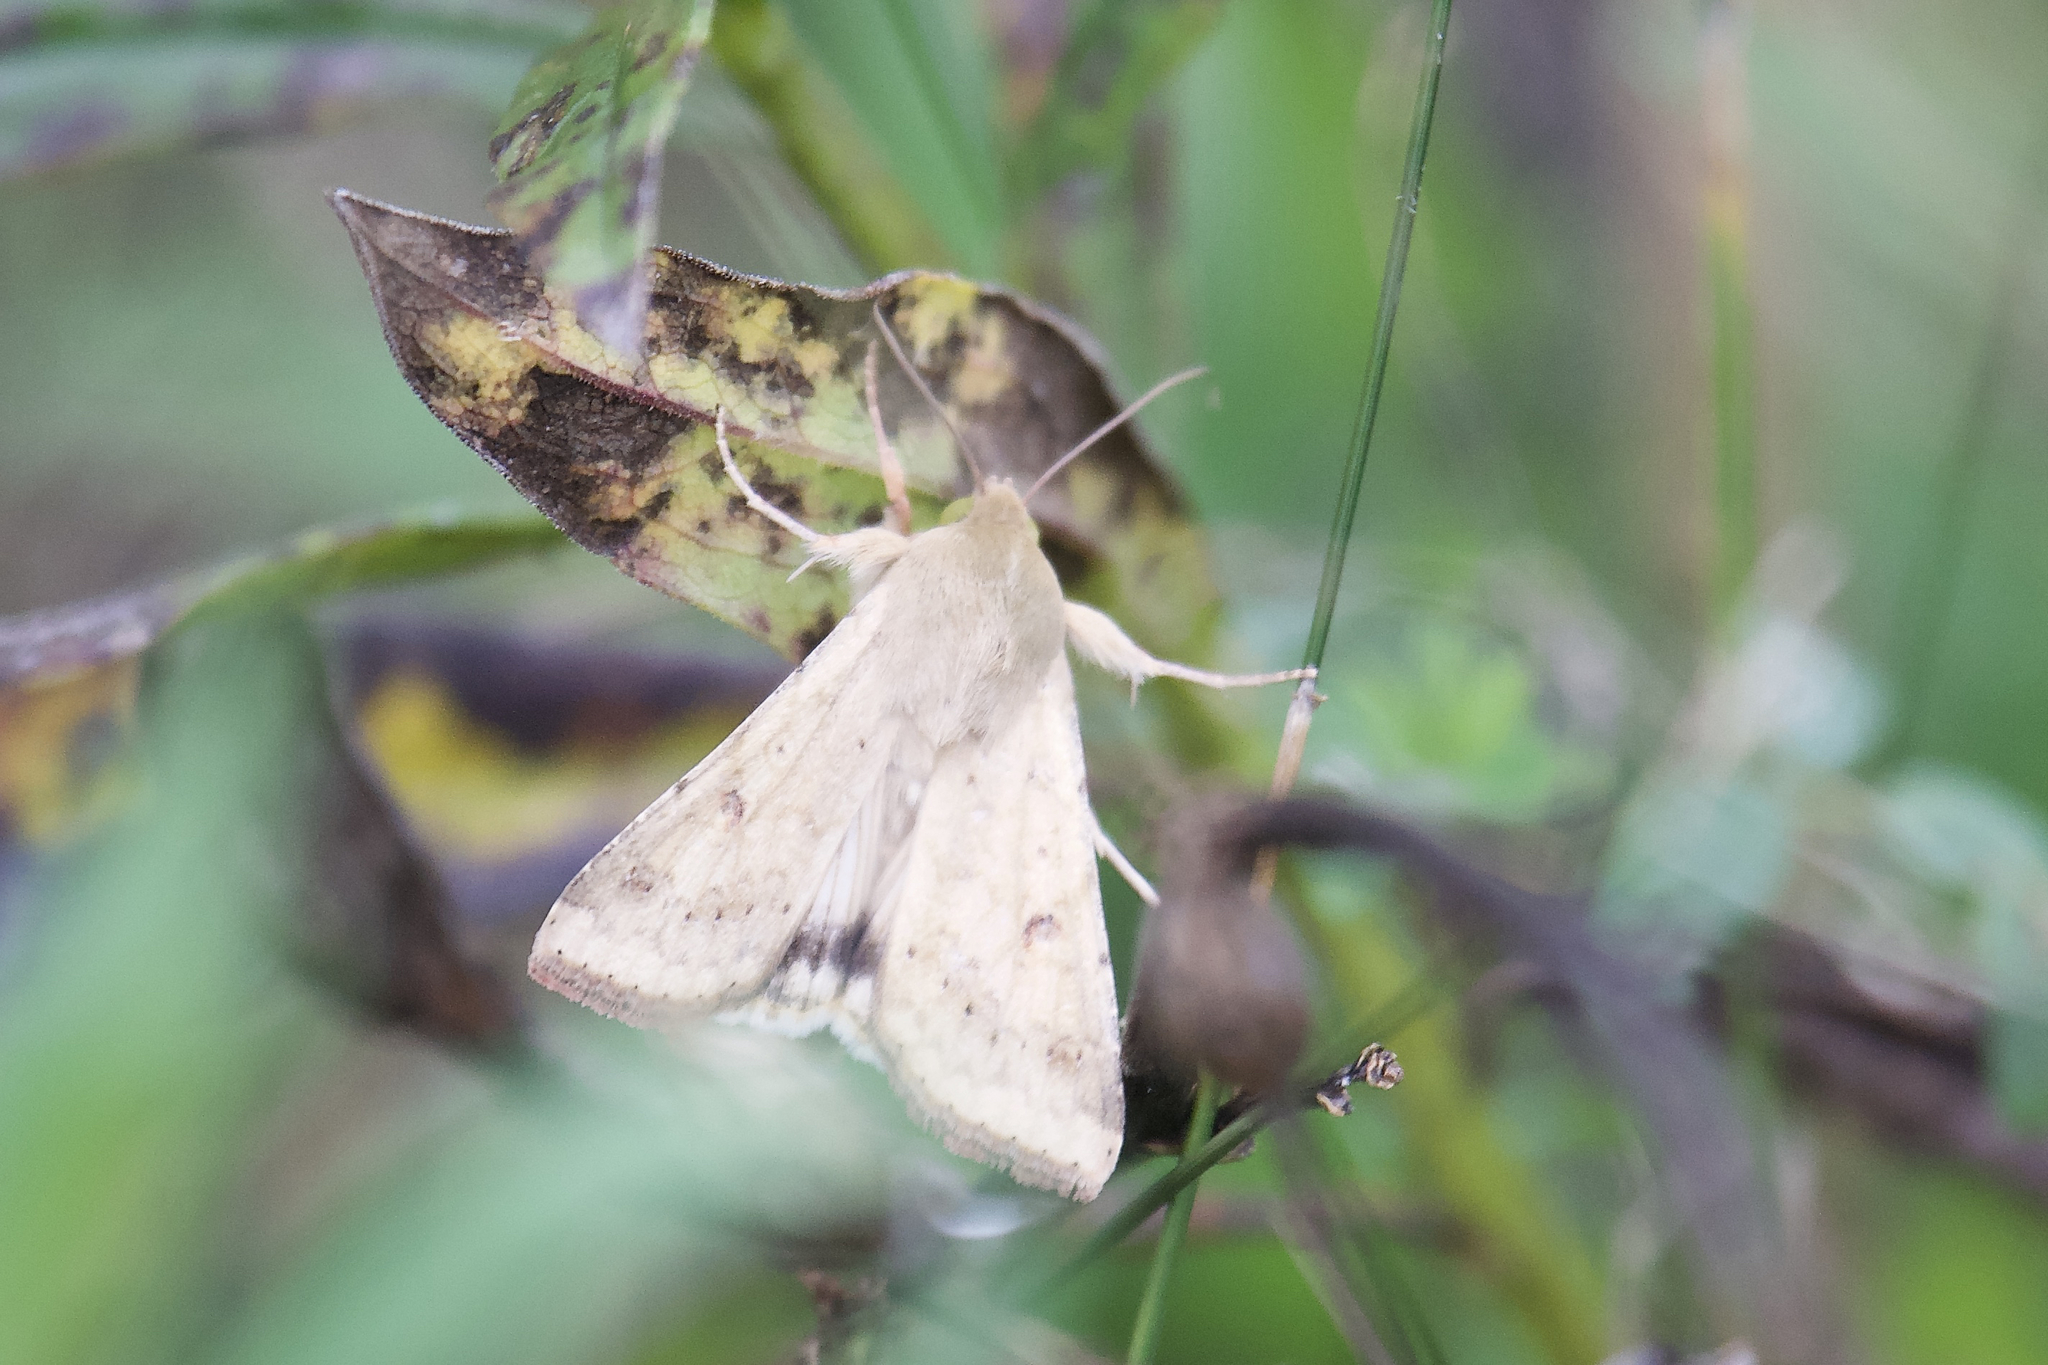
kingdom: Animalia
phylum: Arthropoda
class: Insecta
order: Lepidoptera
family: Noctuidae
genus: Helicoverpa
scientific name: Helicoverpa zea
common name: Bollworm
